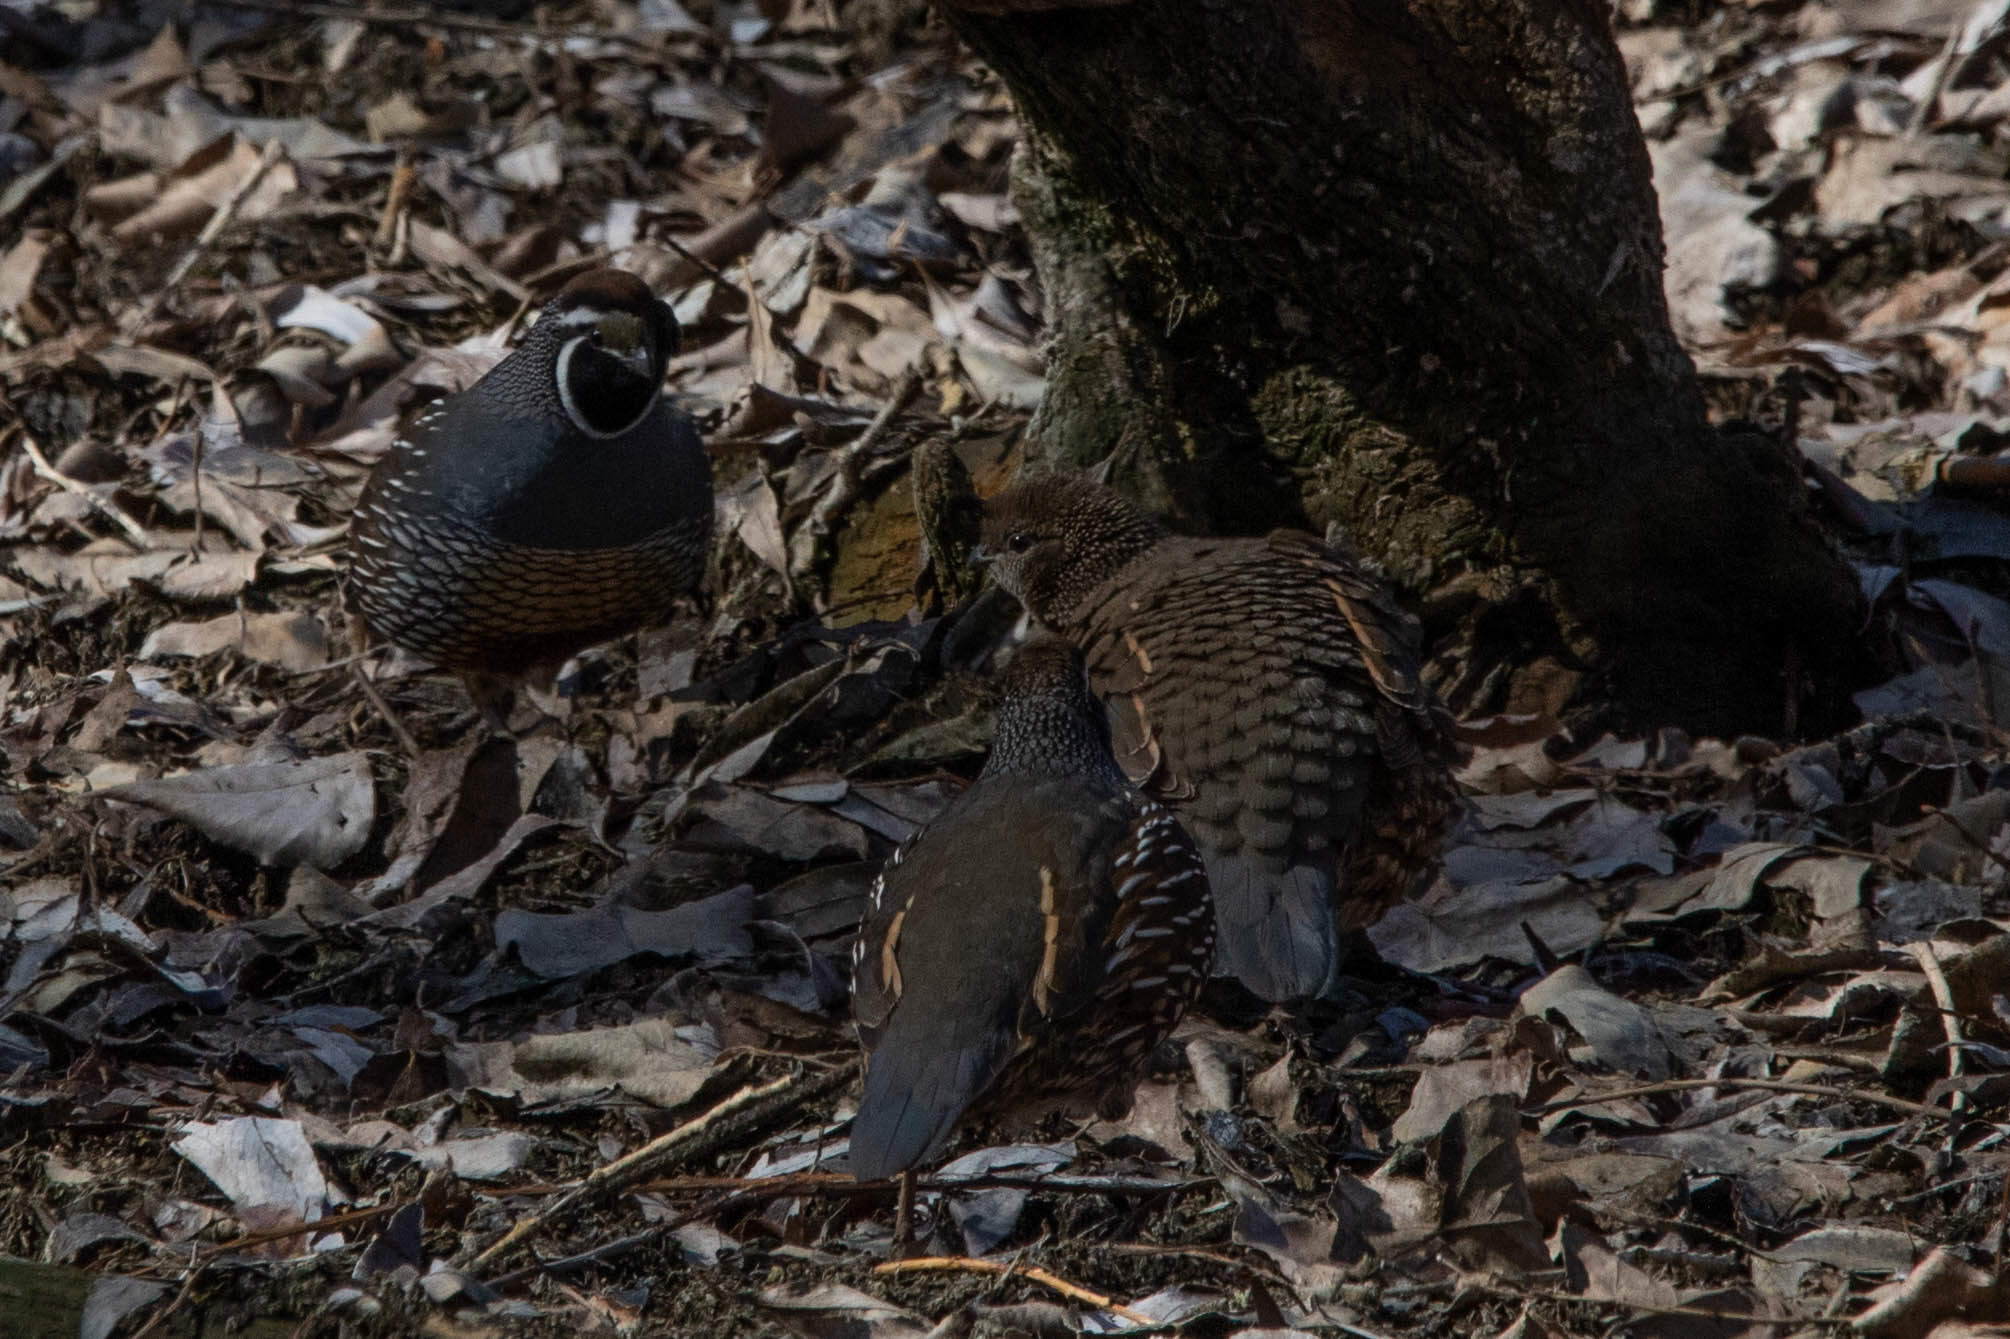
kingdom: Animalia
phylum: Chordata
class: Aves
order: Galliformes
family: Odontophoridae
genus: Callipepla
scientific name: Callipepla californica
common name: California quail
